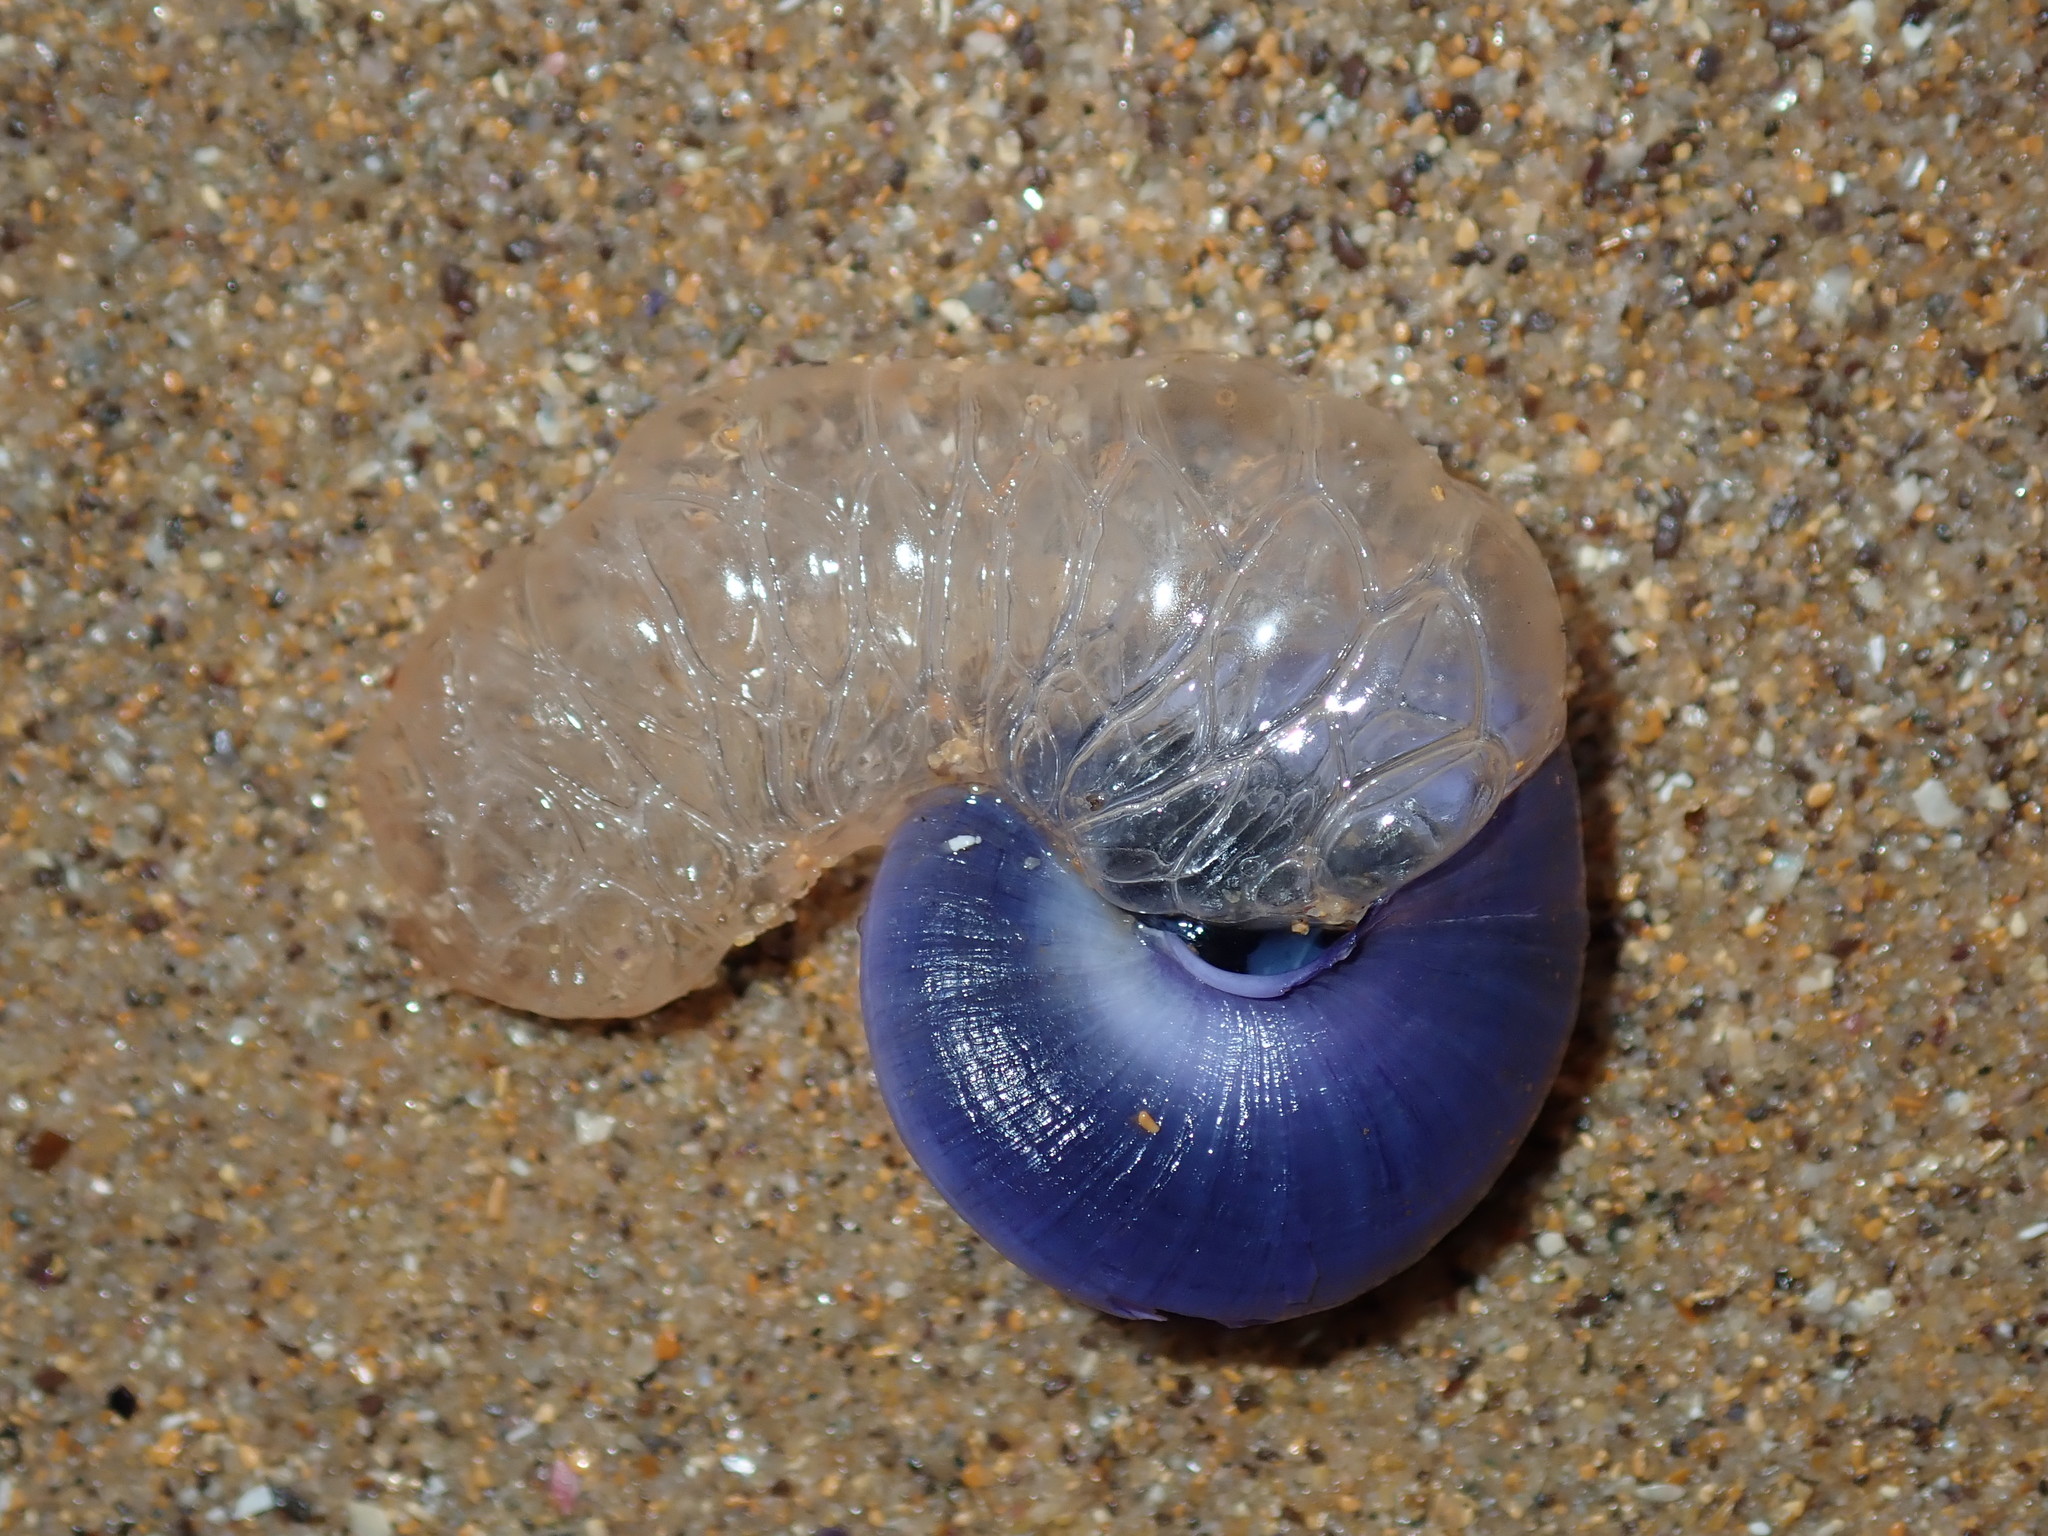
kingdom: Animalia
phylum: Mollusca
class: Gastropoda
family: Epitoniidae
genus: Janthina
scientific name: Janthina janthina
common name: Common janthina
